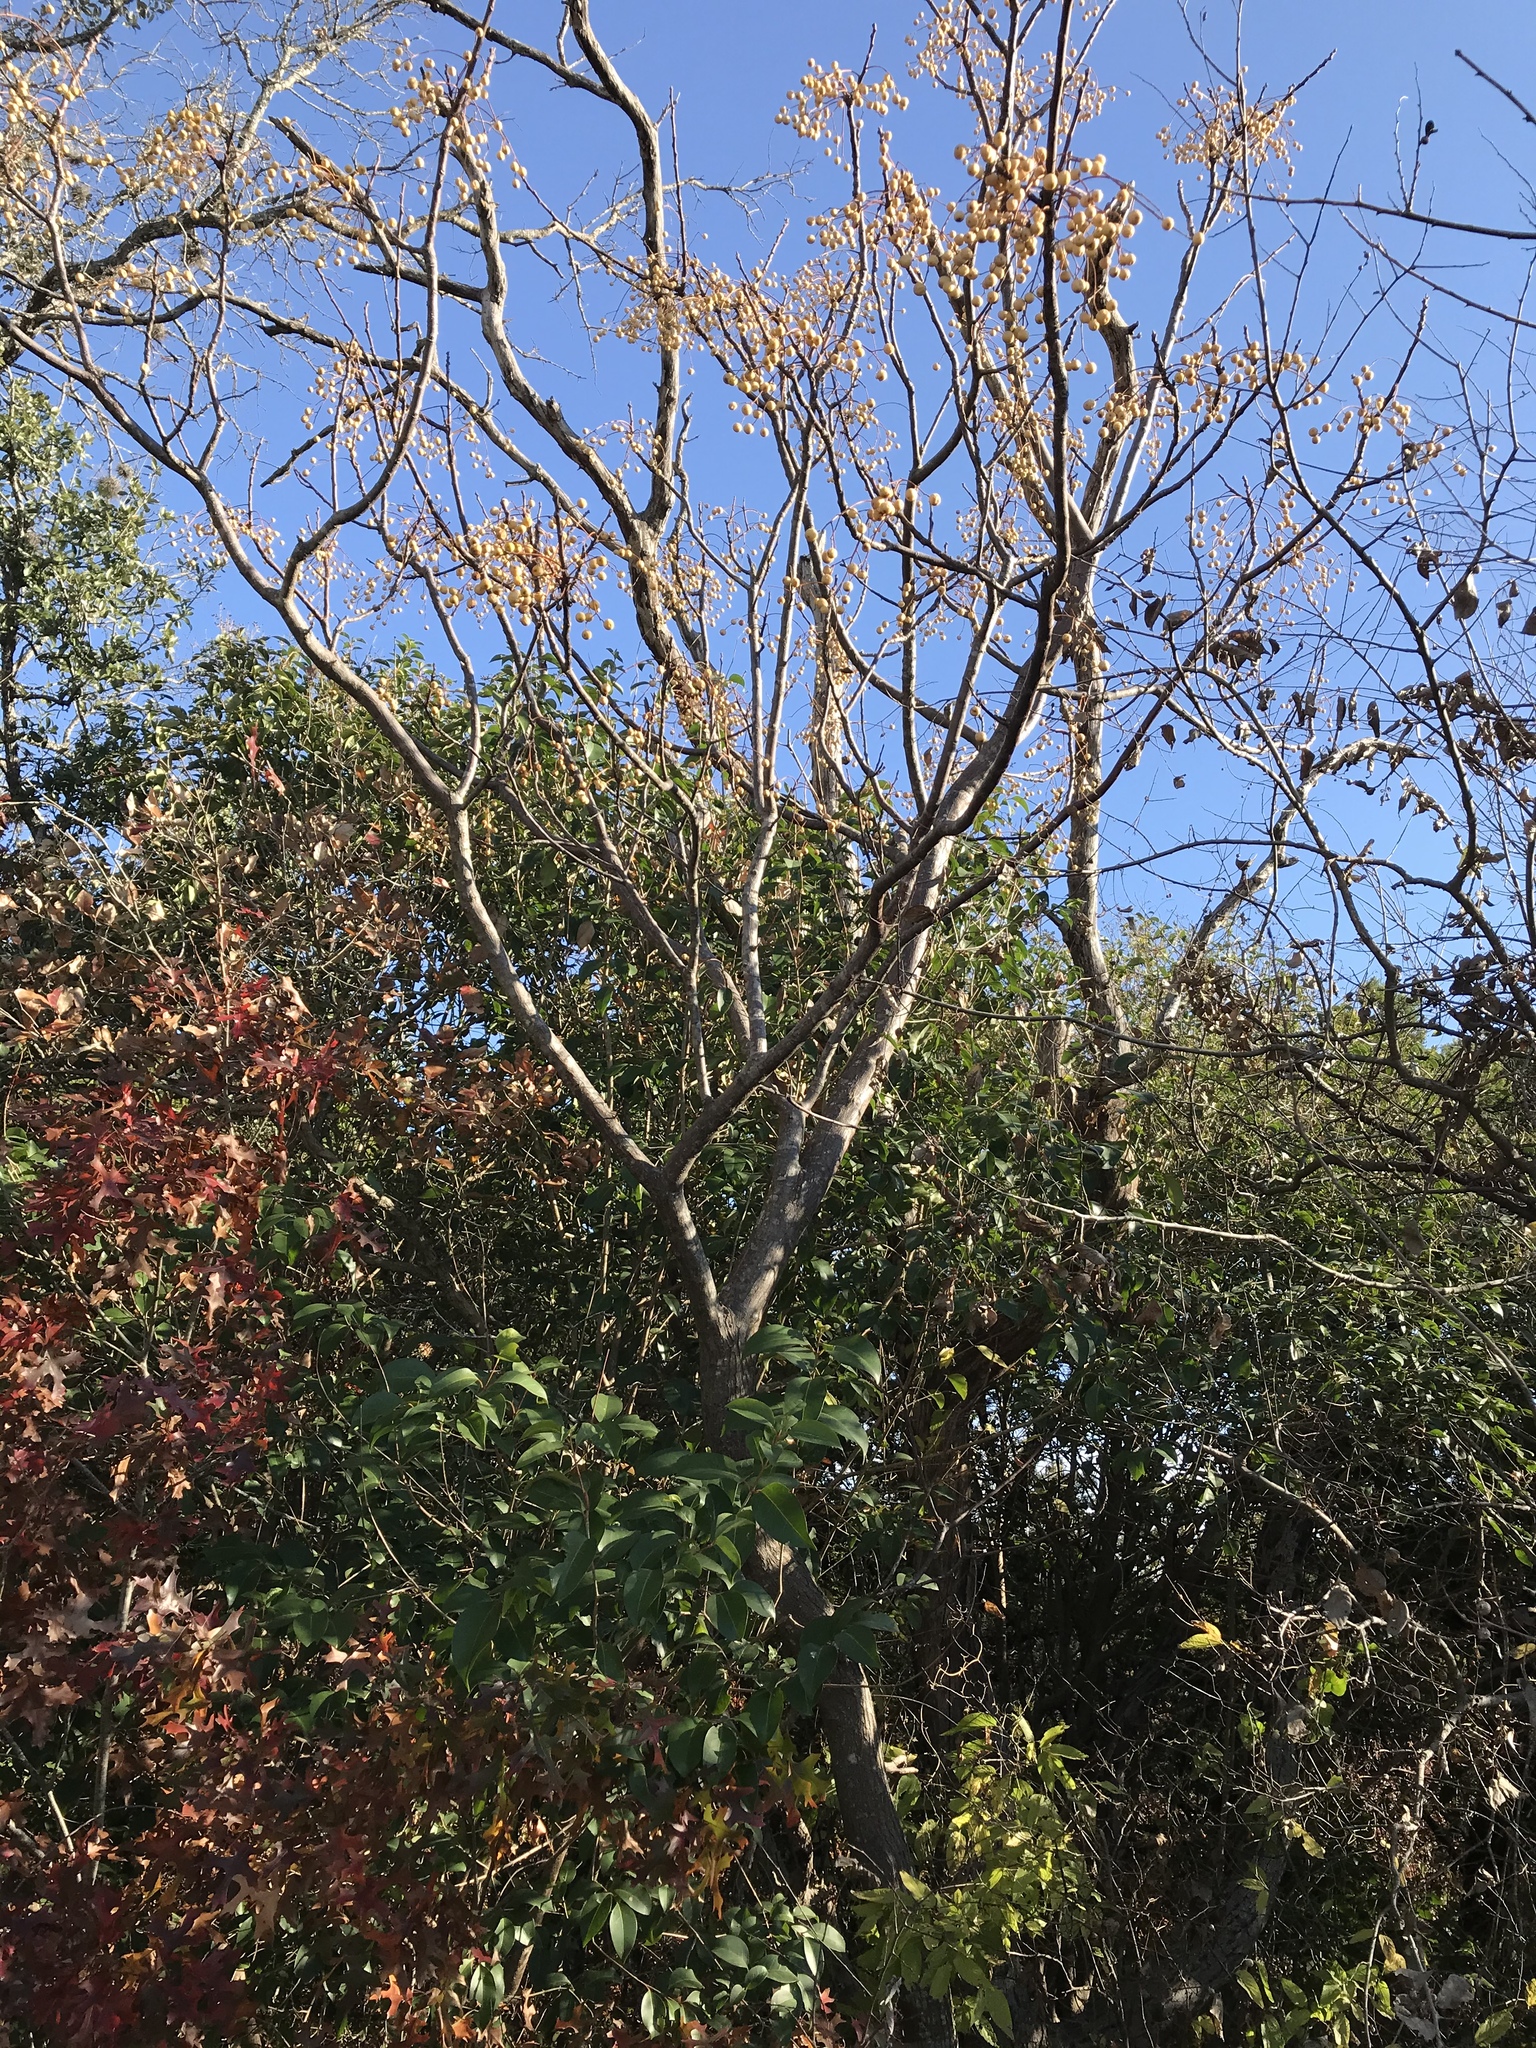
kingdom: Plantae
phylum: Tracheophyta
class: Magnoliopsida
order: Sapindales
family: Meliaceae
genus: Melia
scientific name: Melia azedarach
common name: Chinaberrytree
